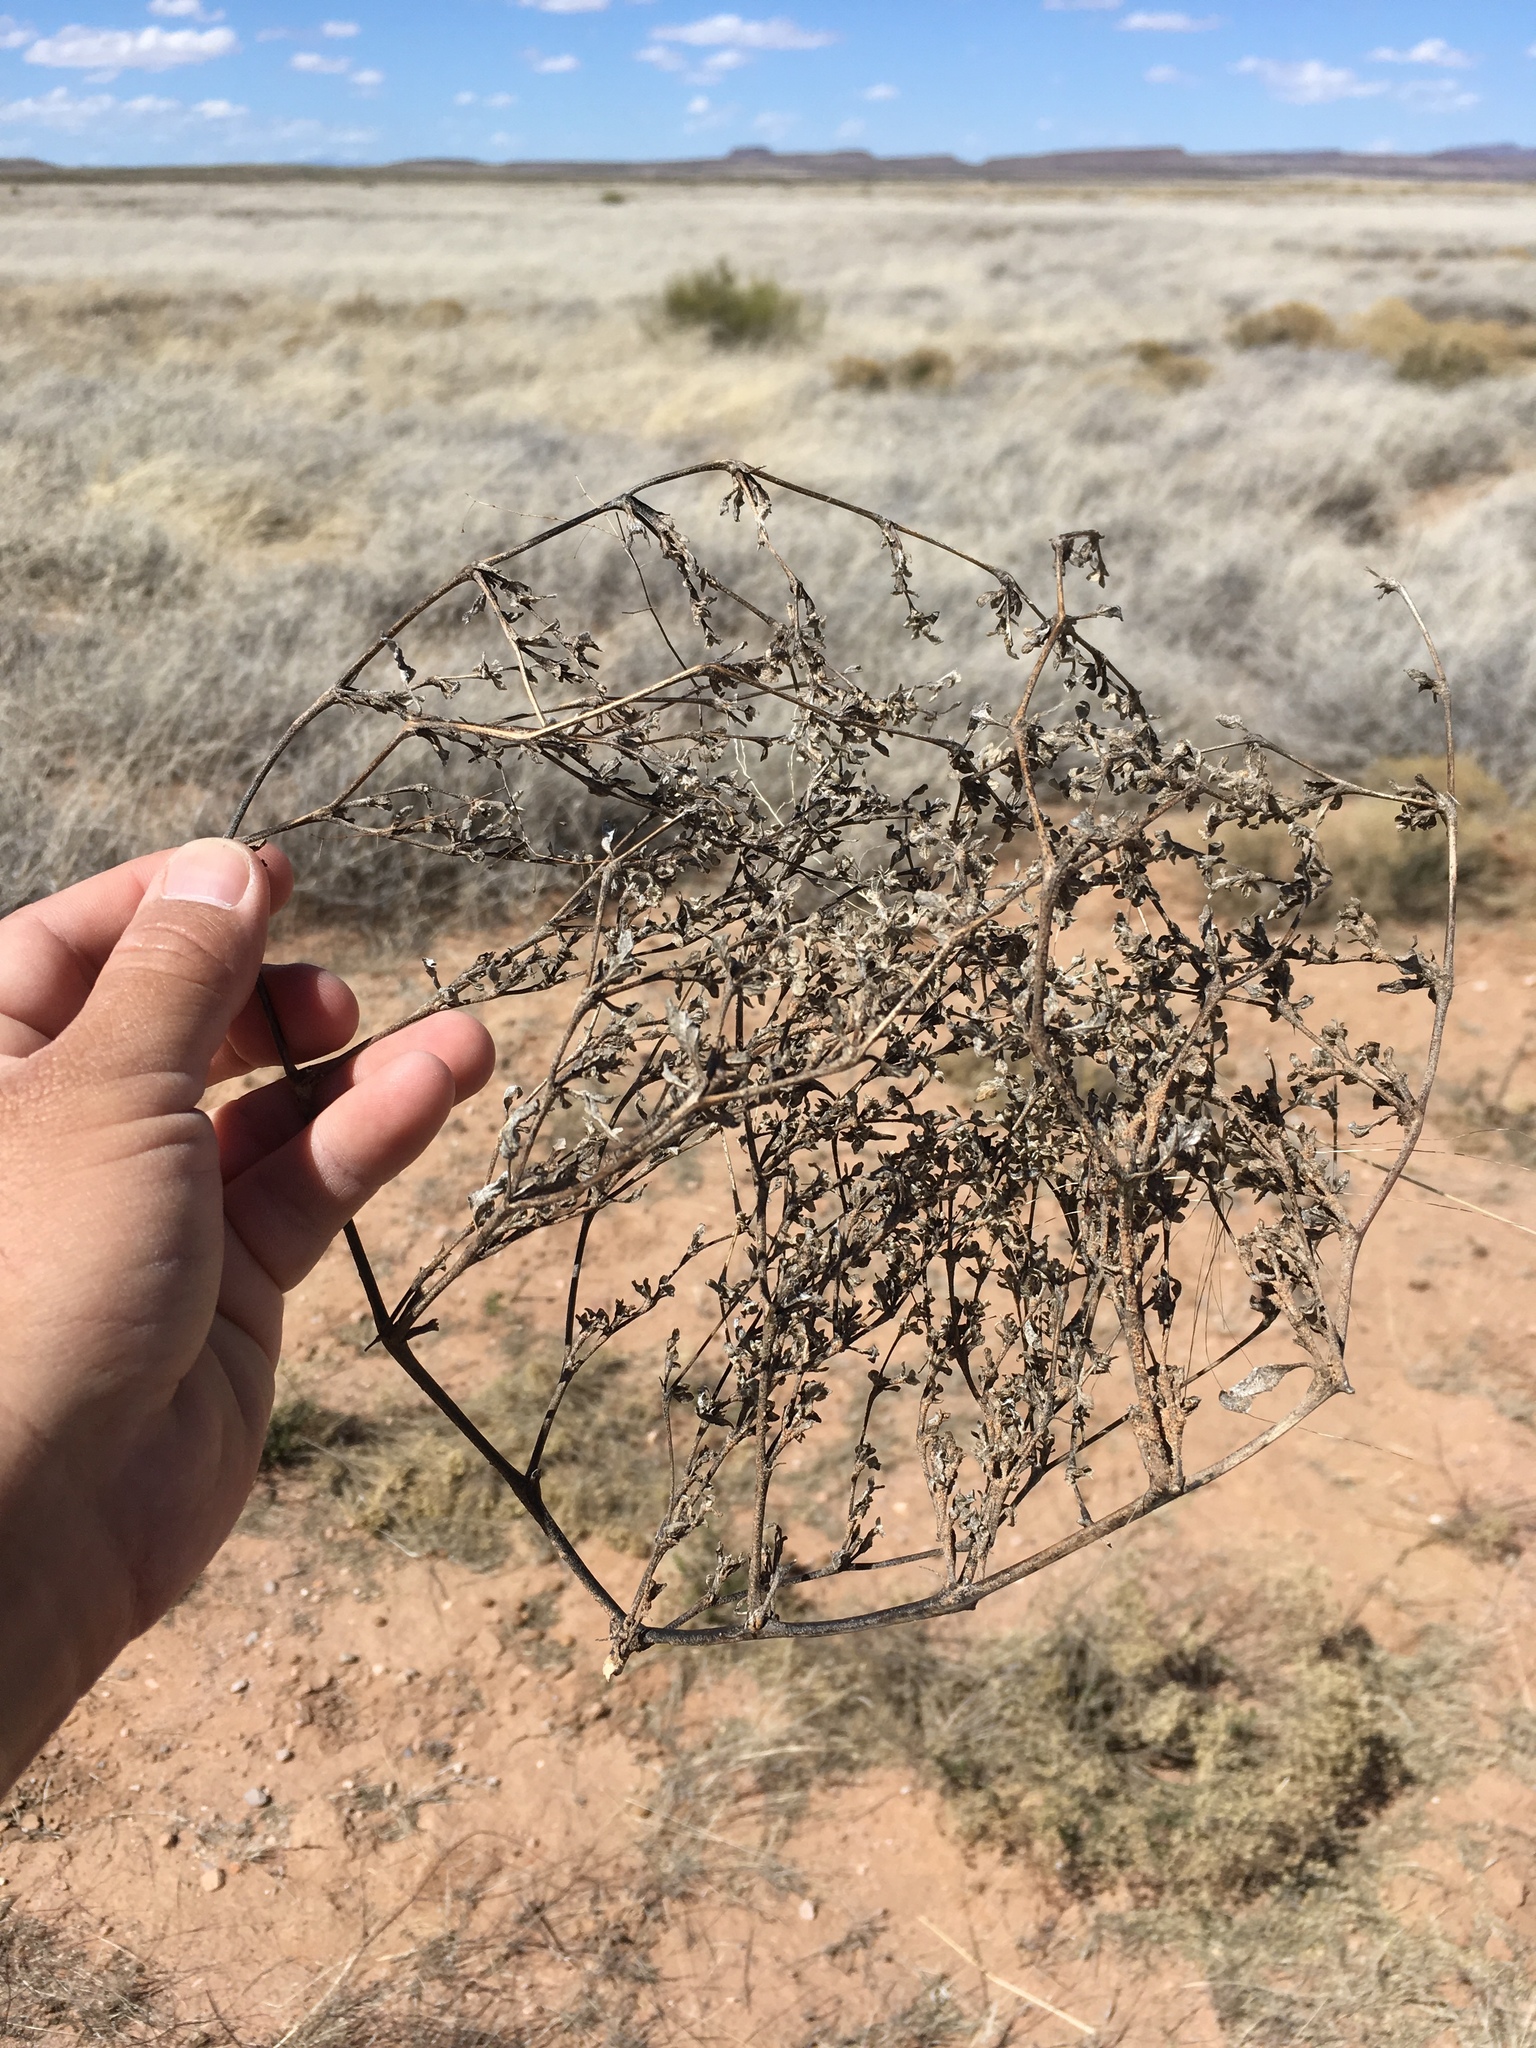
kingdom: Plantae
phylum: Tracheophyta
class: Magnoliopsida
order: Caryophyllales
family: Amaranthaceae
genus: Tidestromia
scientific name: Tidestromia lanuginosa
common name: Woolly tidestromia
